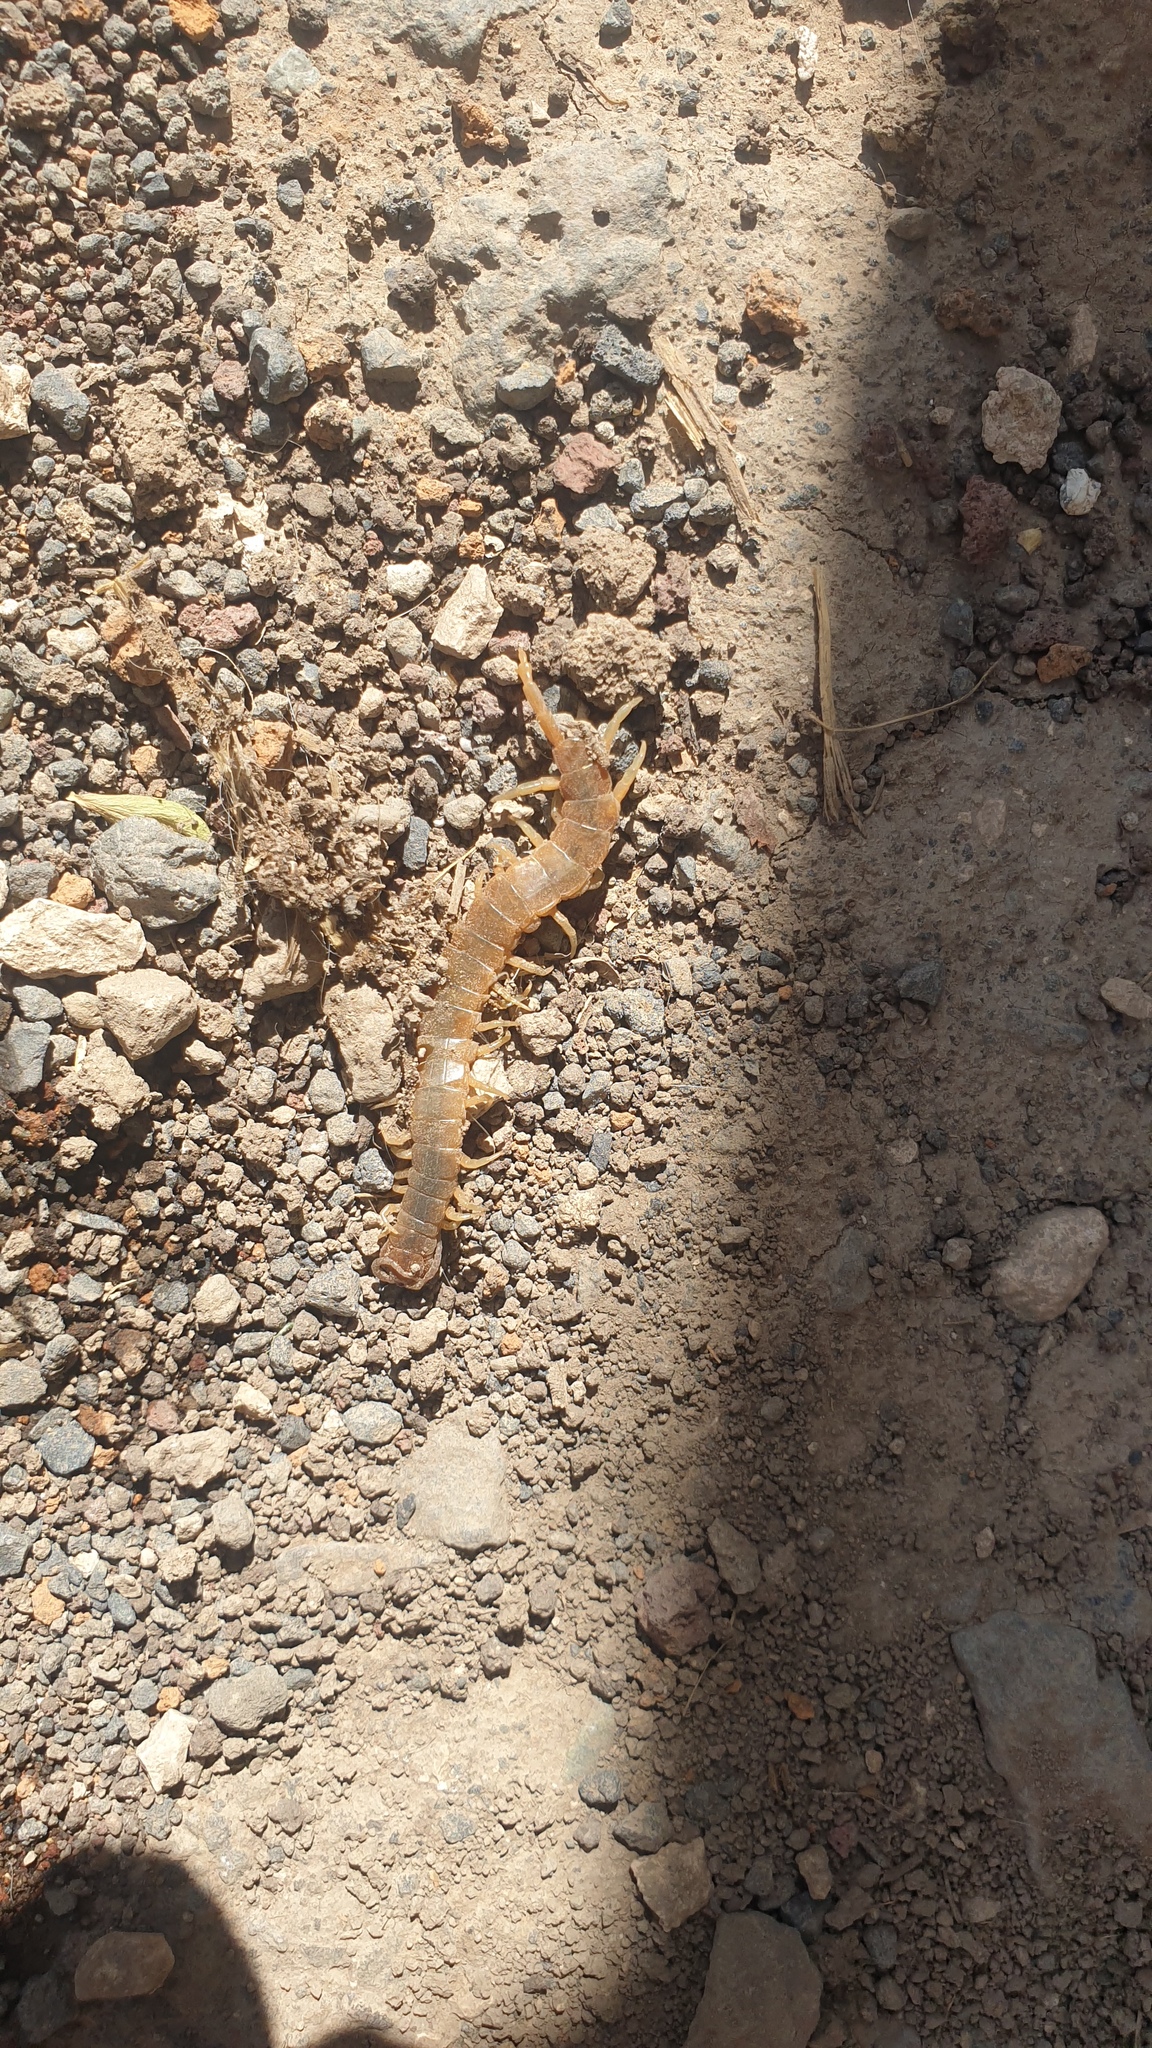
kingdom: Animalia
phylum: Arthropoda
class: Chilopoda
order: Scolopendromorpha
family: Scolopendridae
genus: Scolopendra
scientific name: Scolopendra canidens
